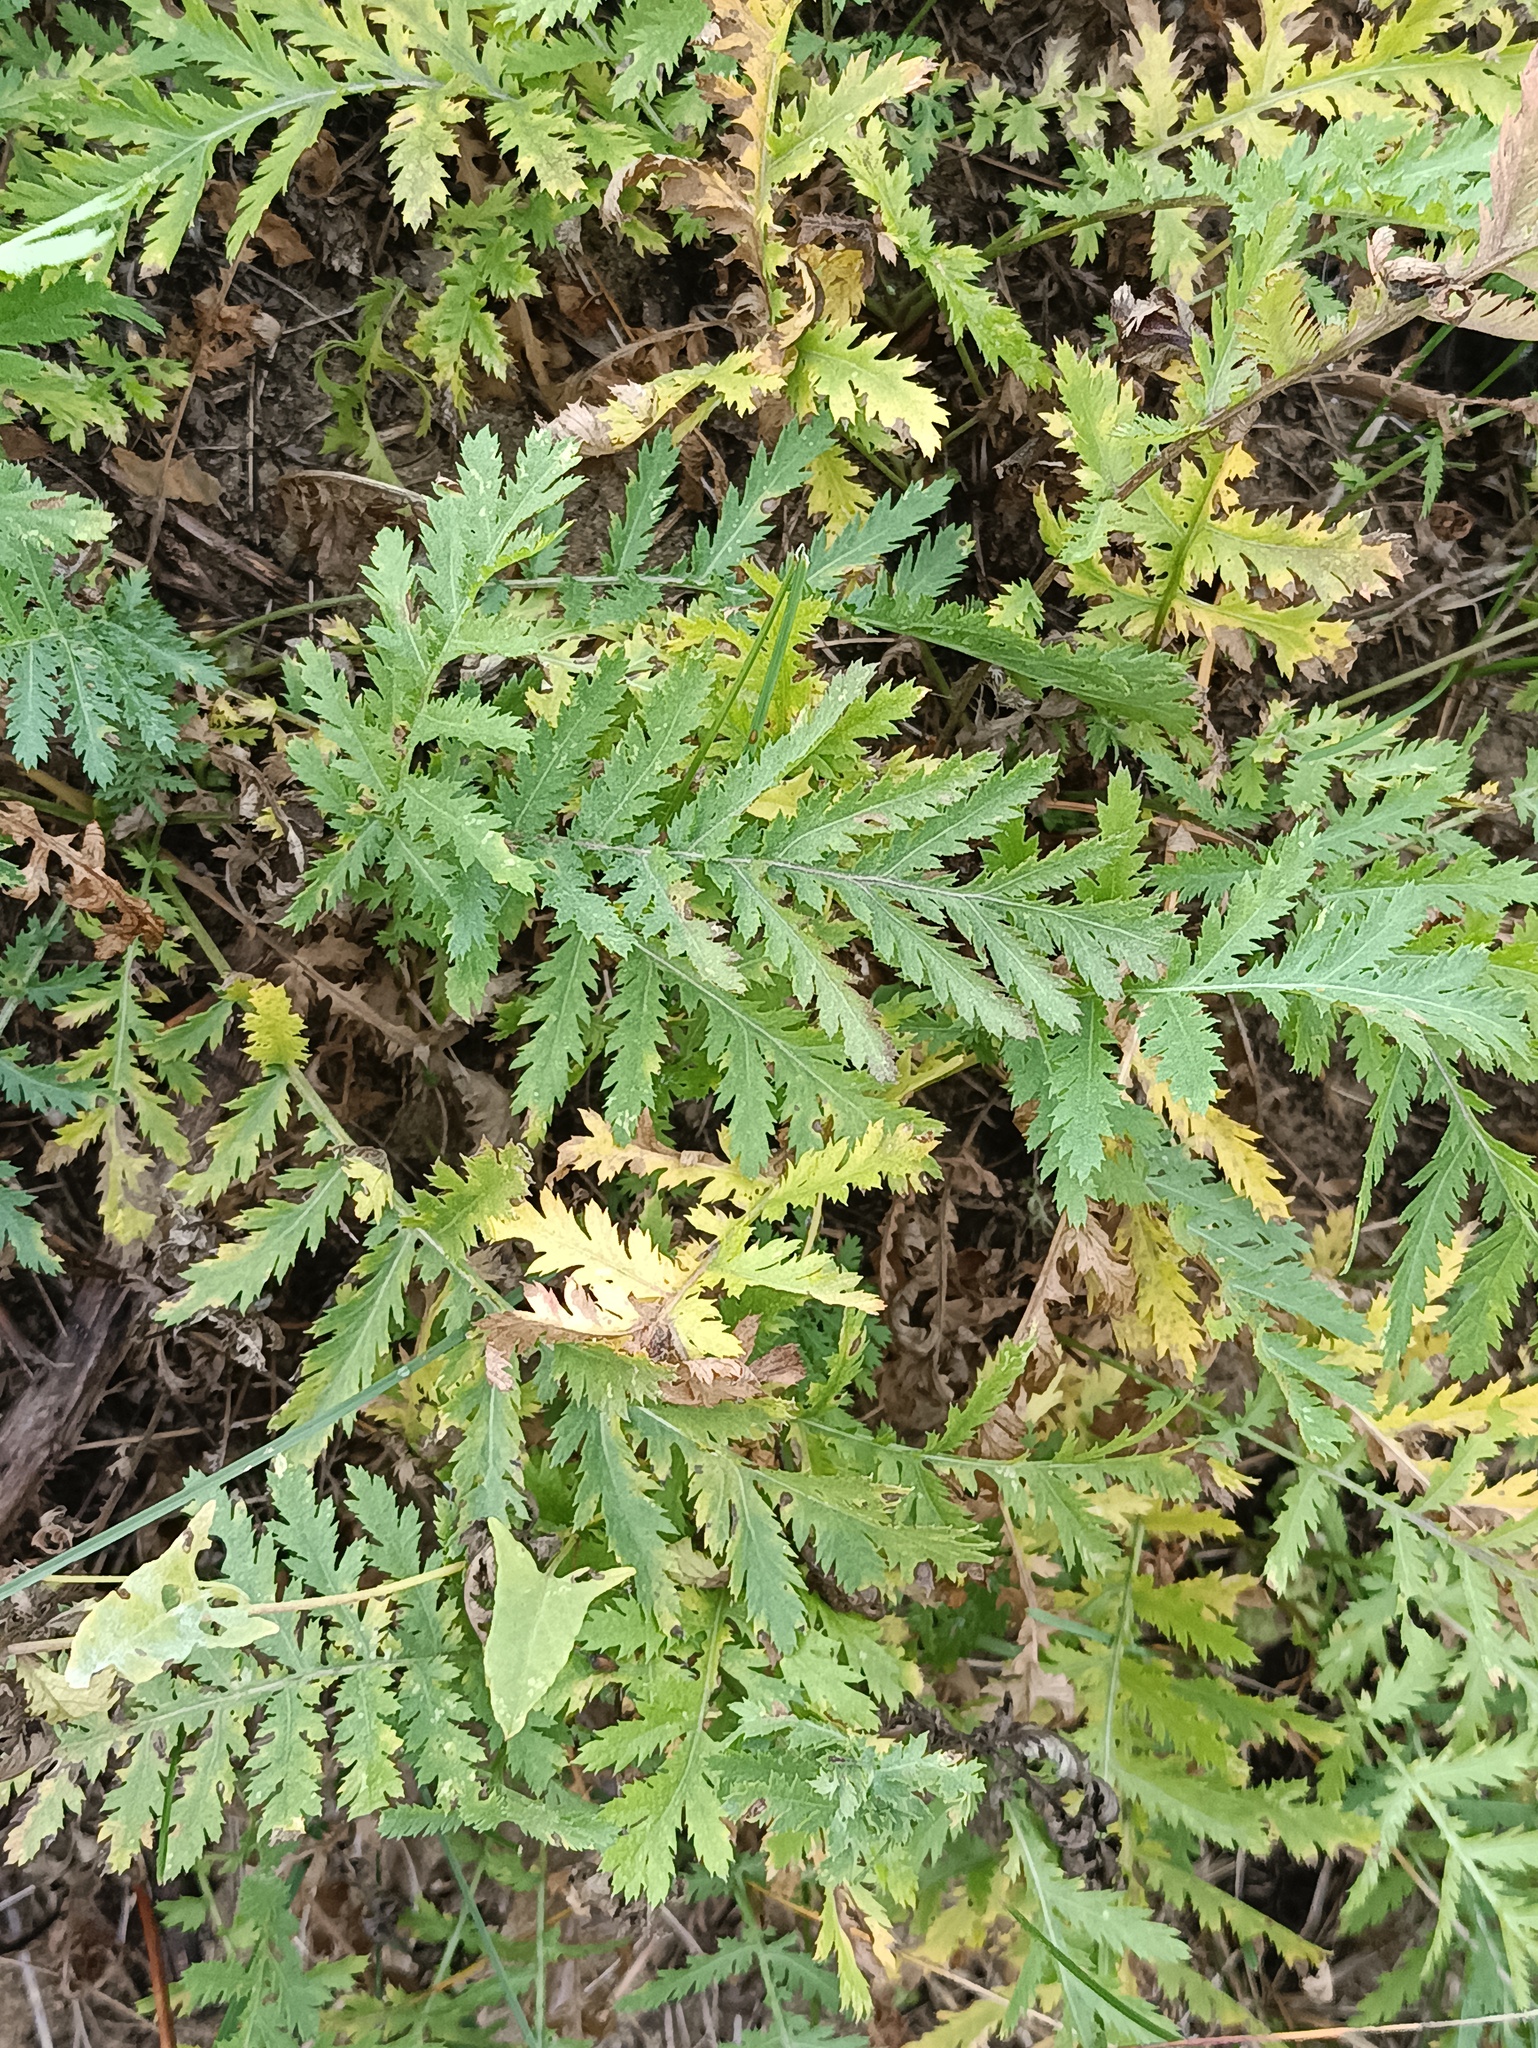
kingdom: Plantae
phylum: Tracheophyta
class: Magnoliopsida
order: Asterales
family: Asteraceae
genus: Tanacetum
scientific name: Tanacetum vulgare
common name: Common tansy
